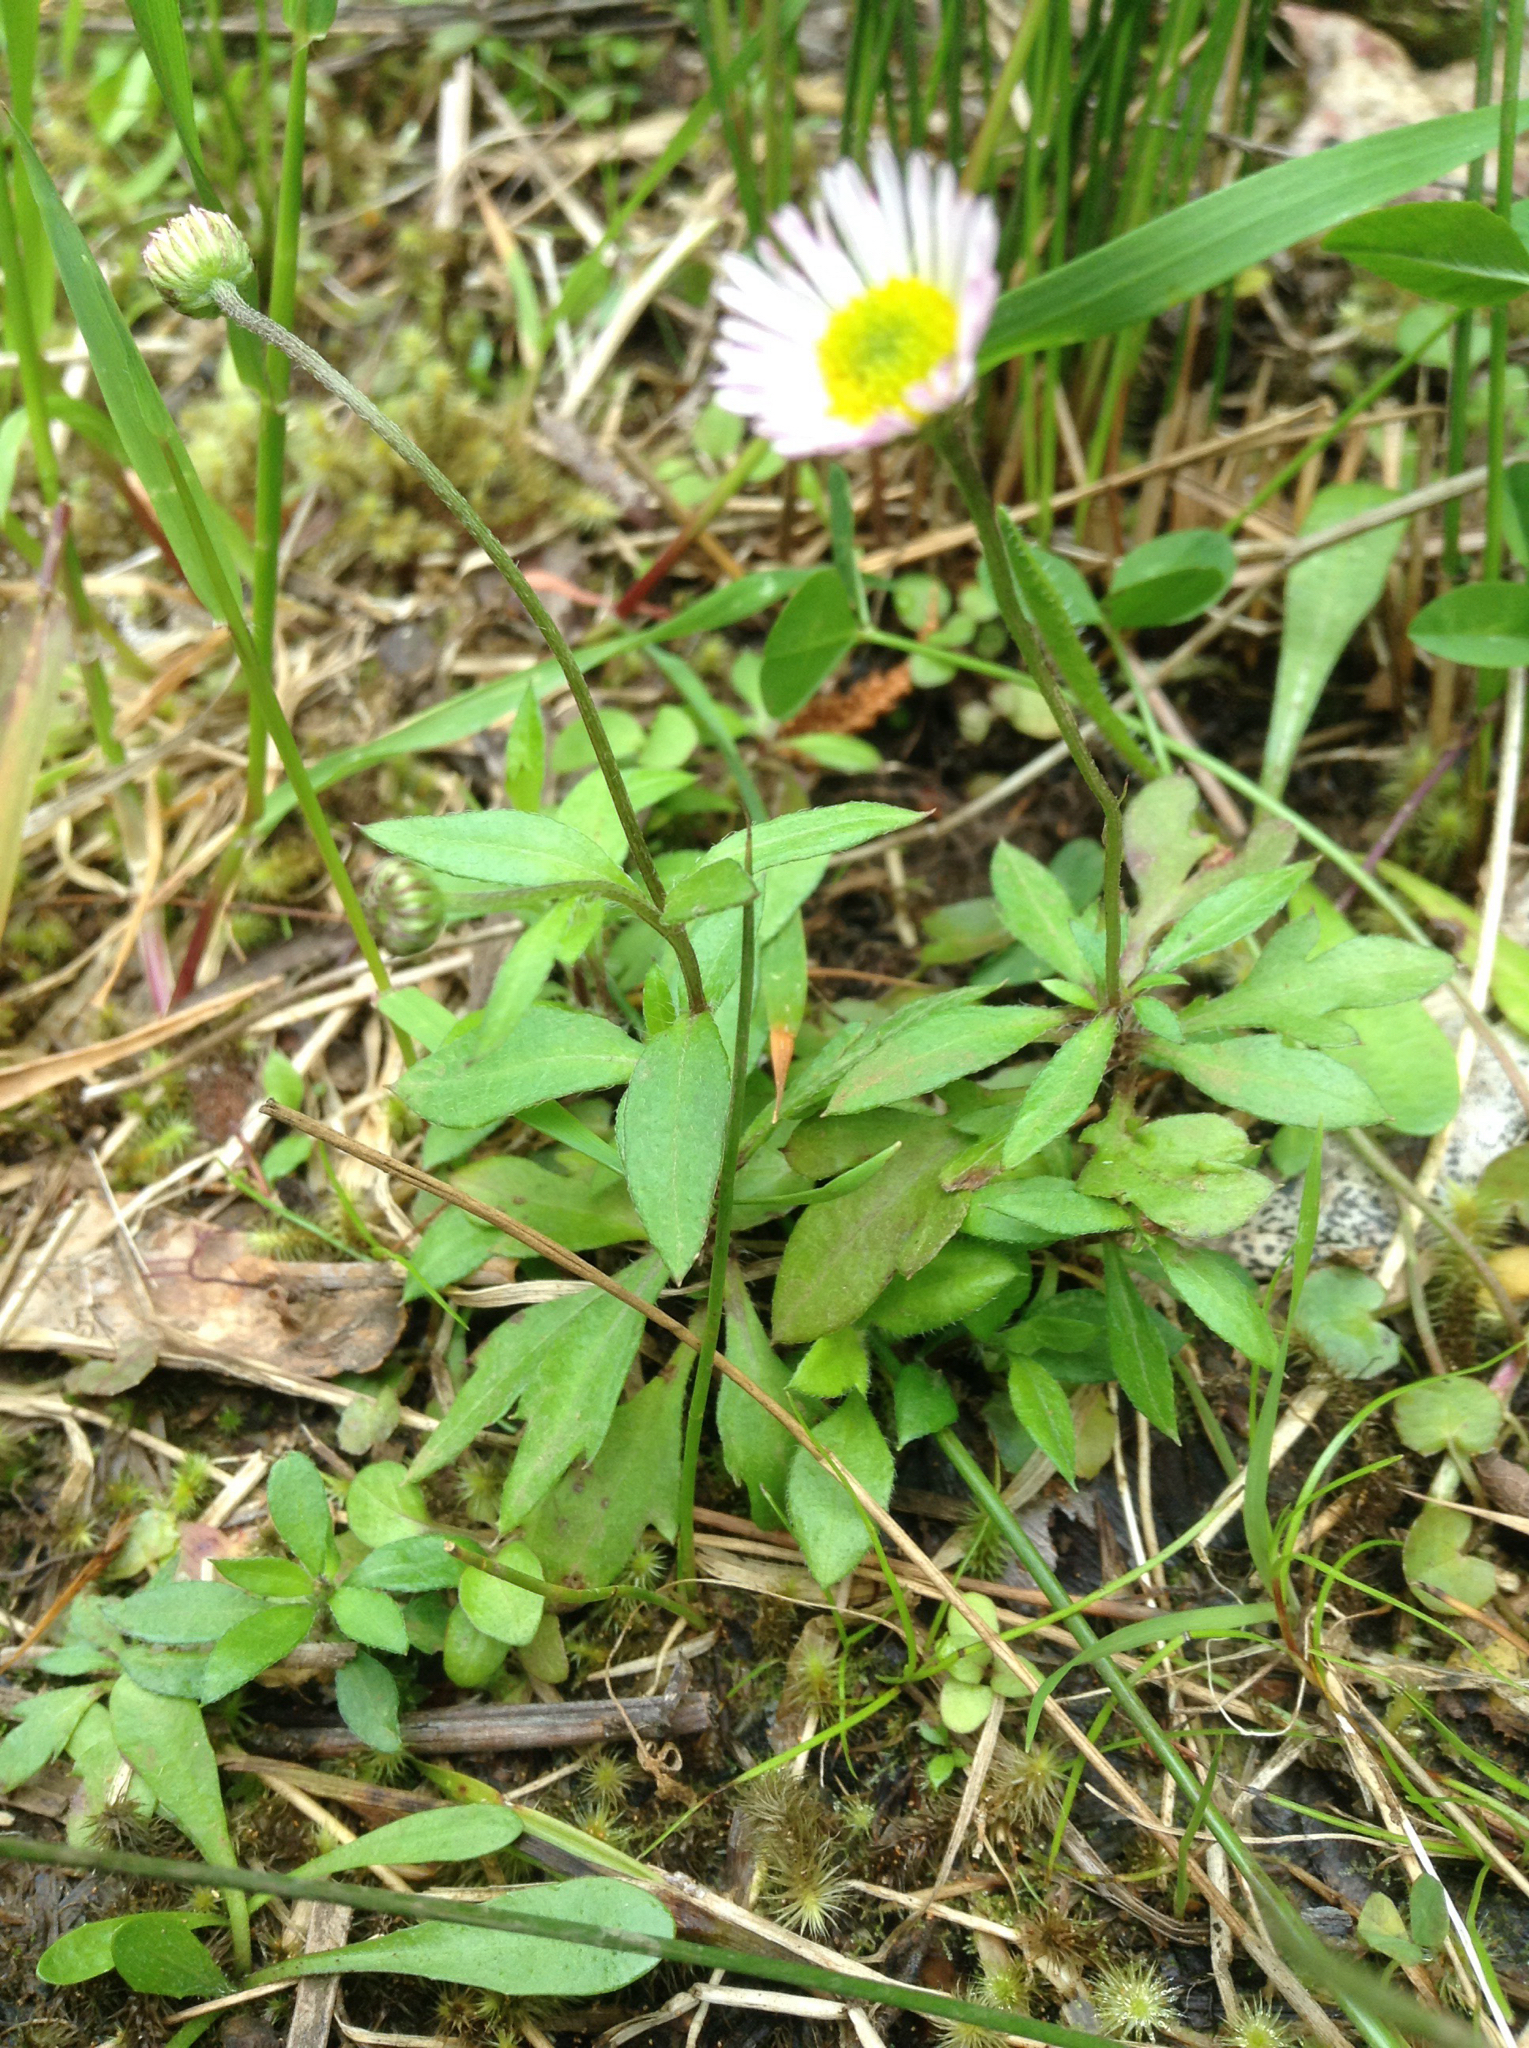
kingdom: Plantae
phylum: Tracheophyta
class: Magnoliopsida
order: Asterales
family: Asteraceae
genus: Erigeron
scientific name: Erigeron karvinskianus
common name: Mexican fleabane
